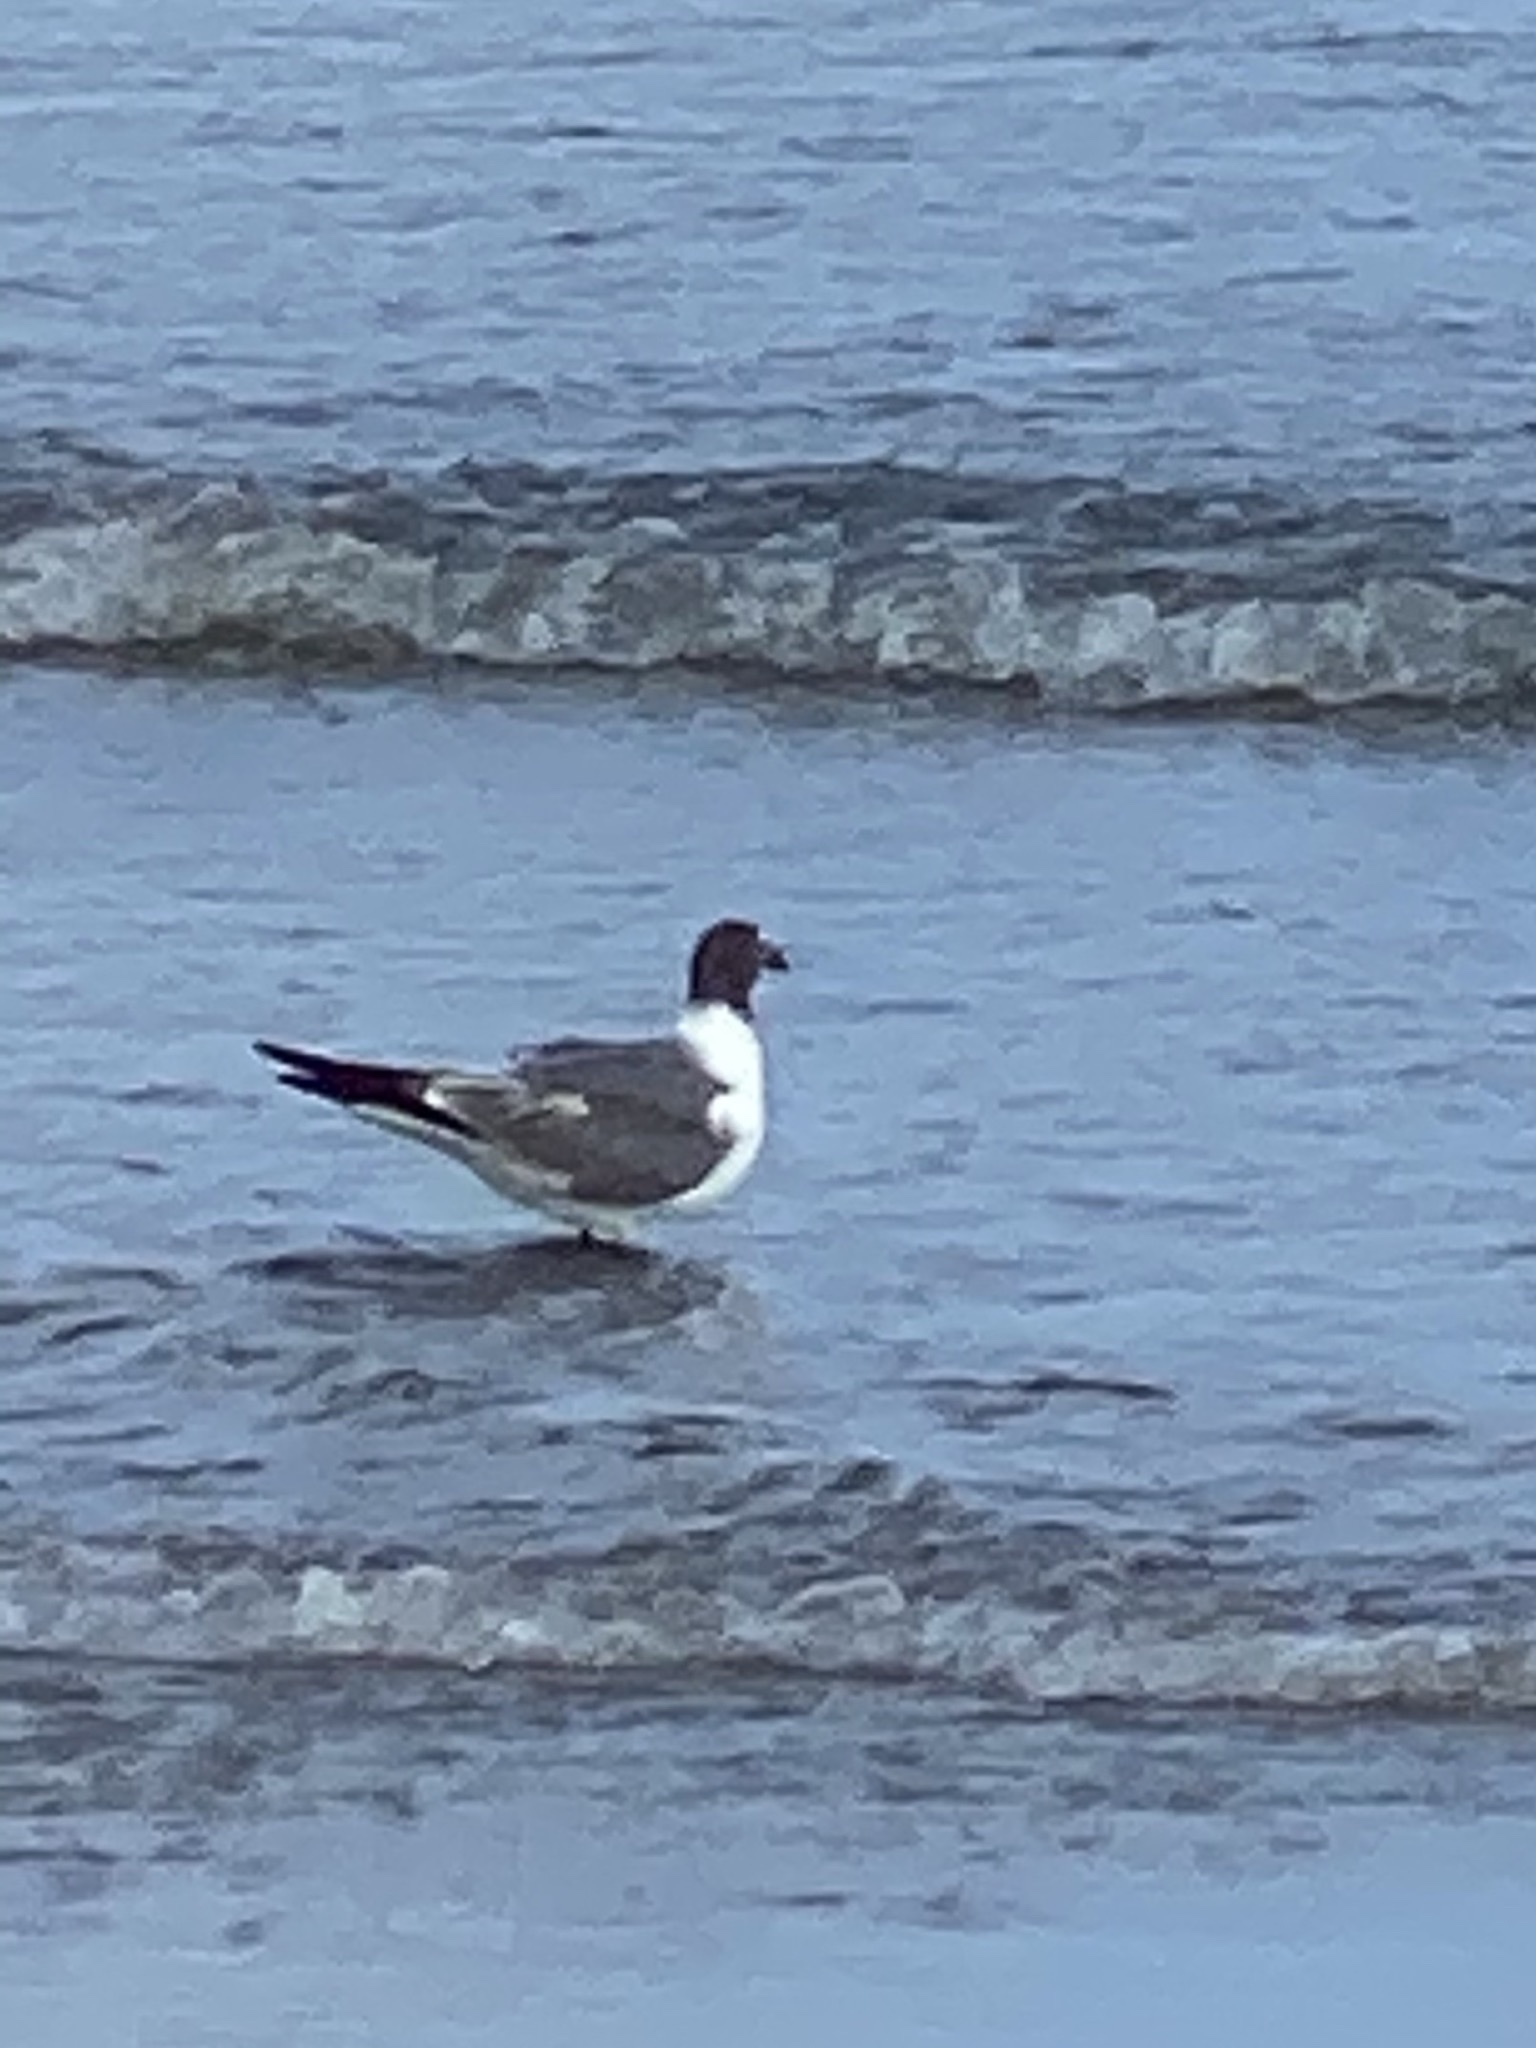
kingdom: Animalia
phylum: Chordata
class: Aves
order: Charadriiformes
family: Laridae
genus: Leucophaeus
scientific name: Leucophaeus atricilla
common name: Laughing gull
